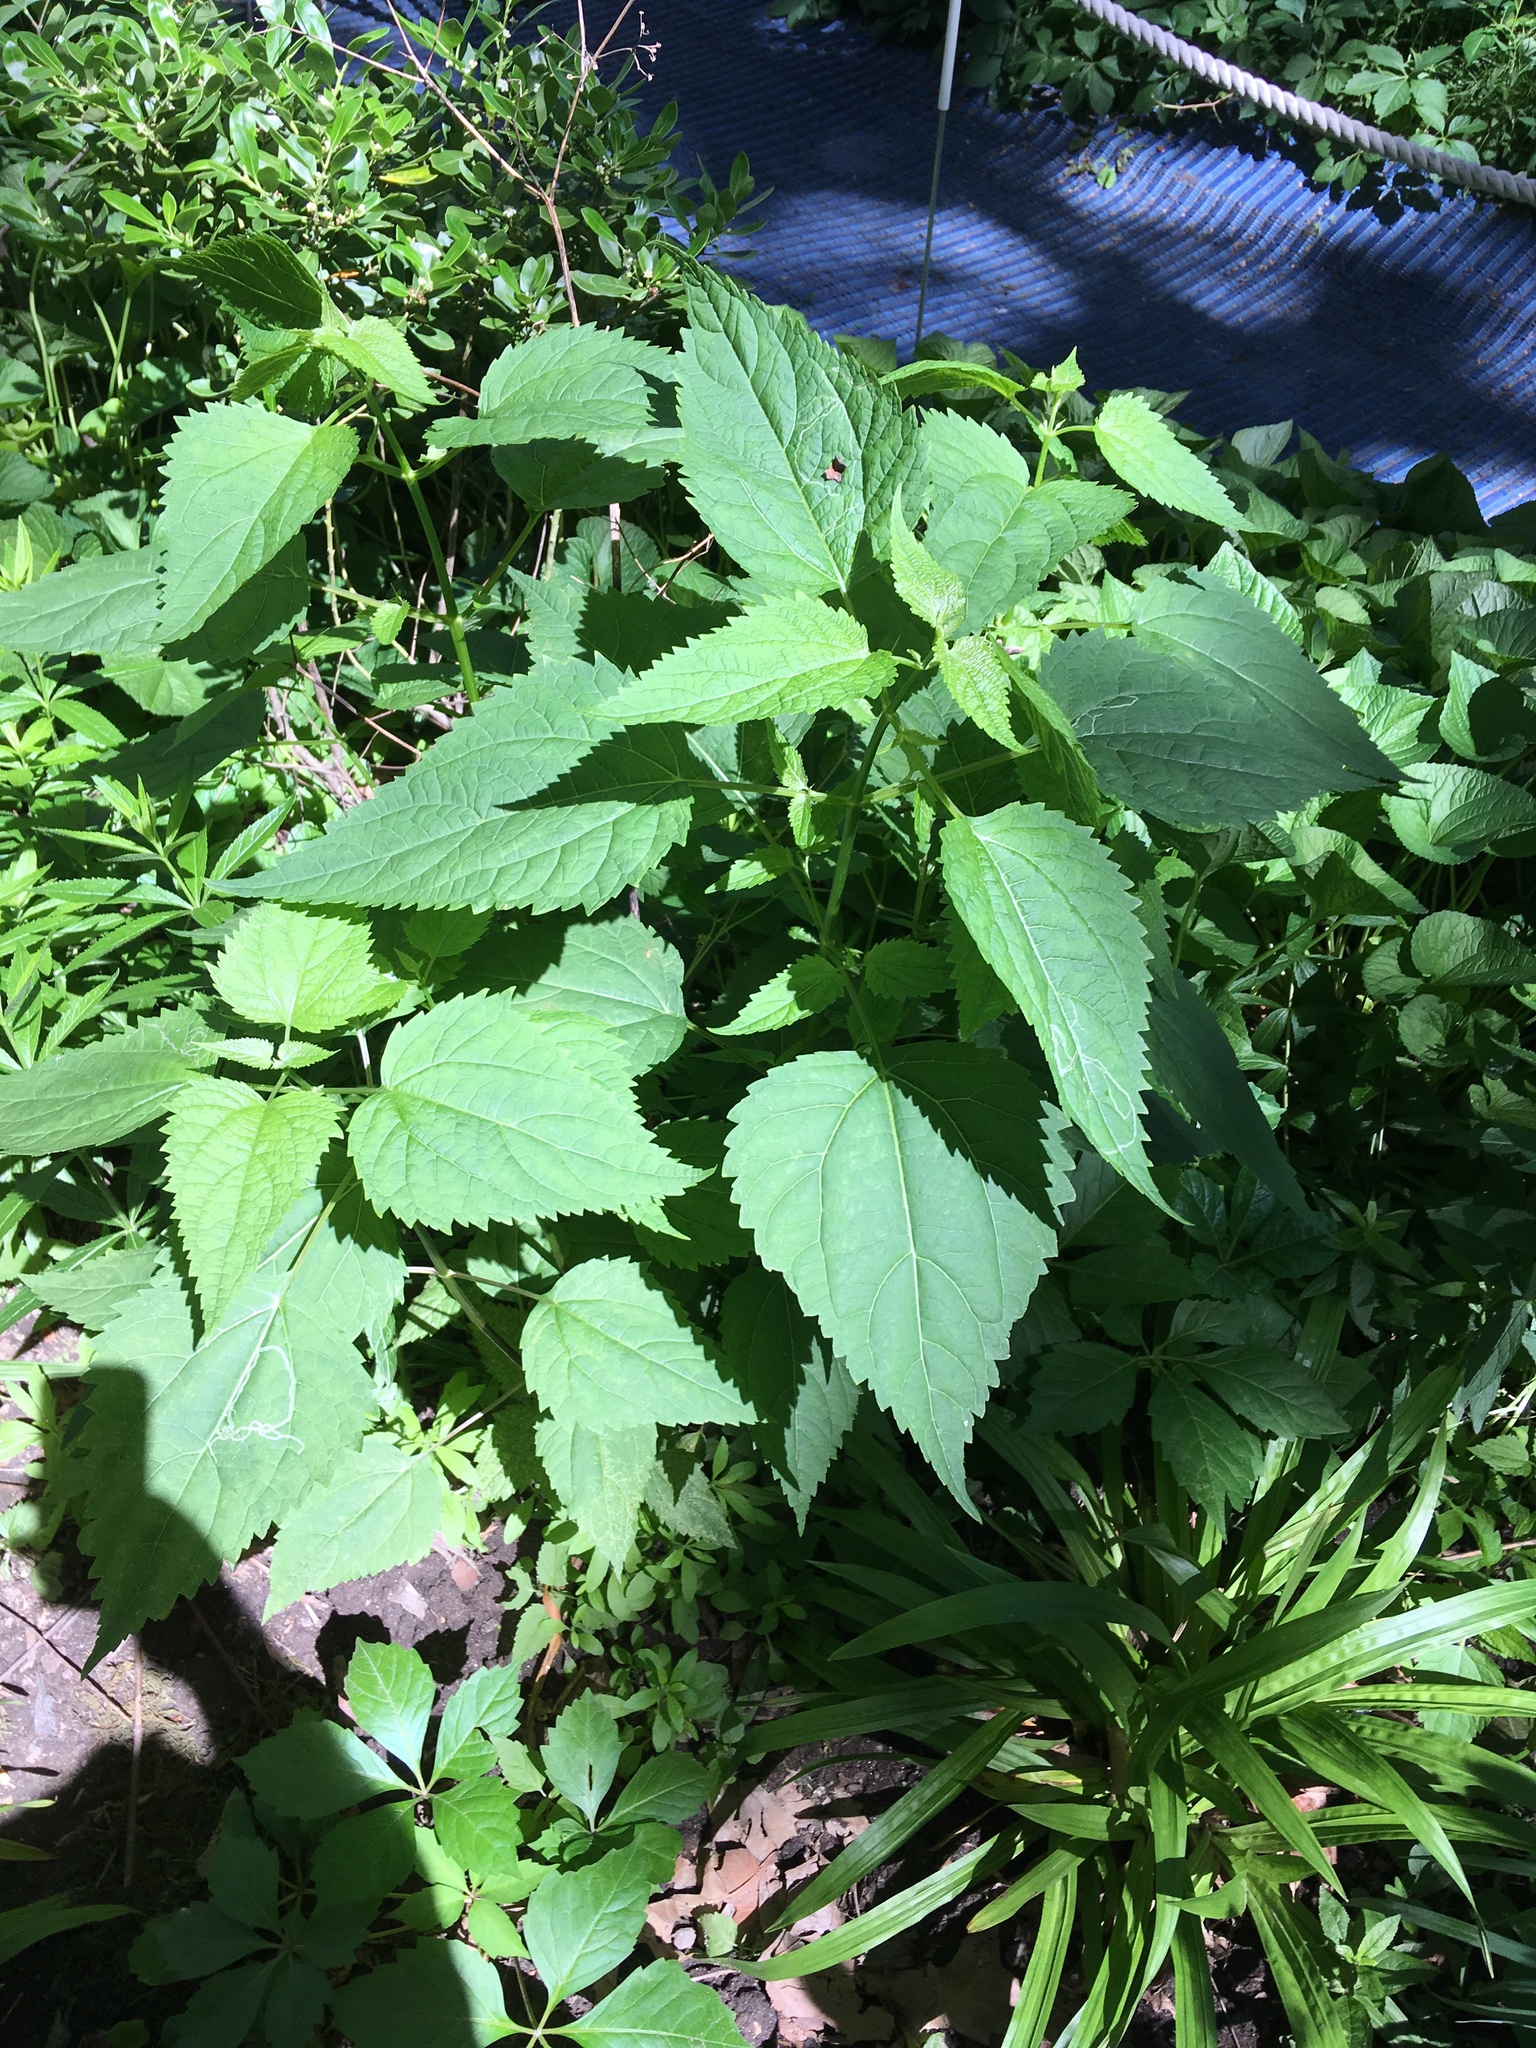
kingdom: Plantae
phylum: Tracheophyta
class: Magnoliopsida
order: Asterales
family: Asteraceae
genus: Ageratina
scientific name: Ageratina altissima
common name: White snakeroot
